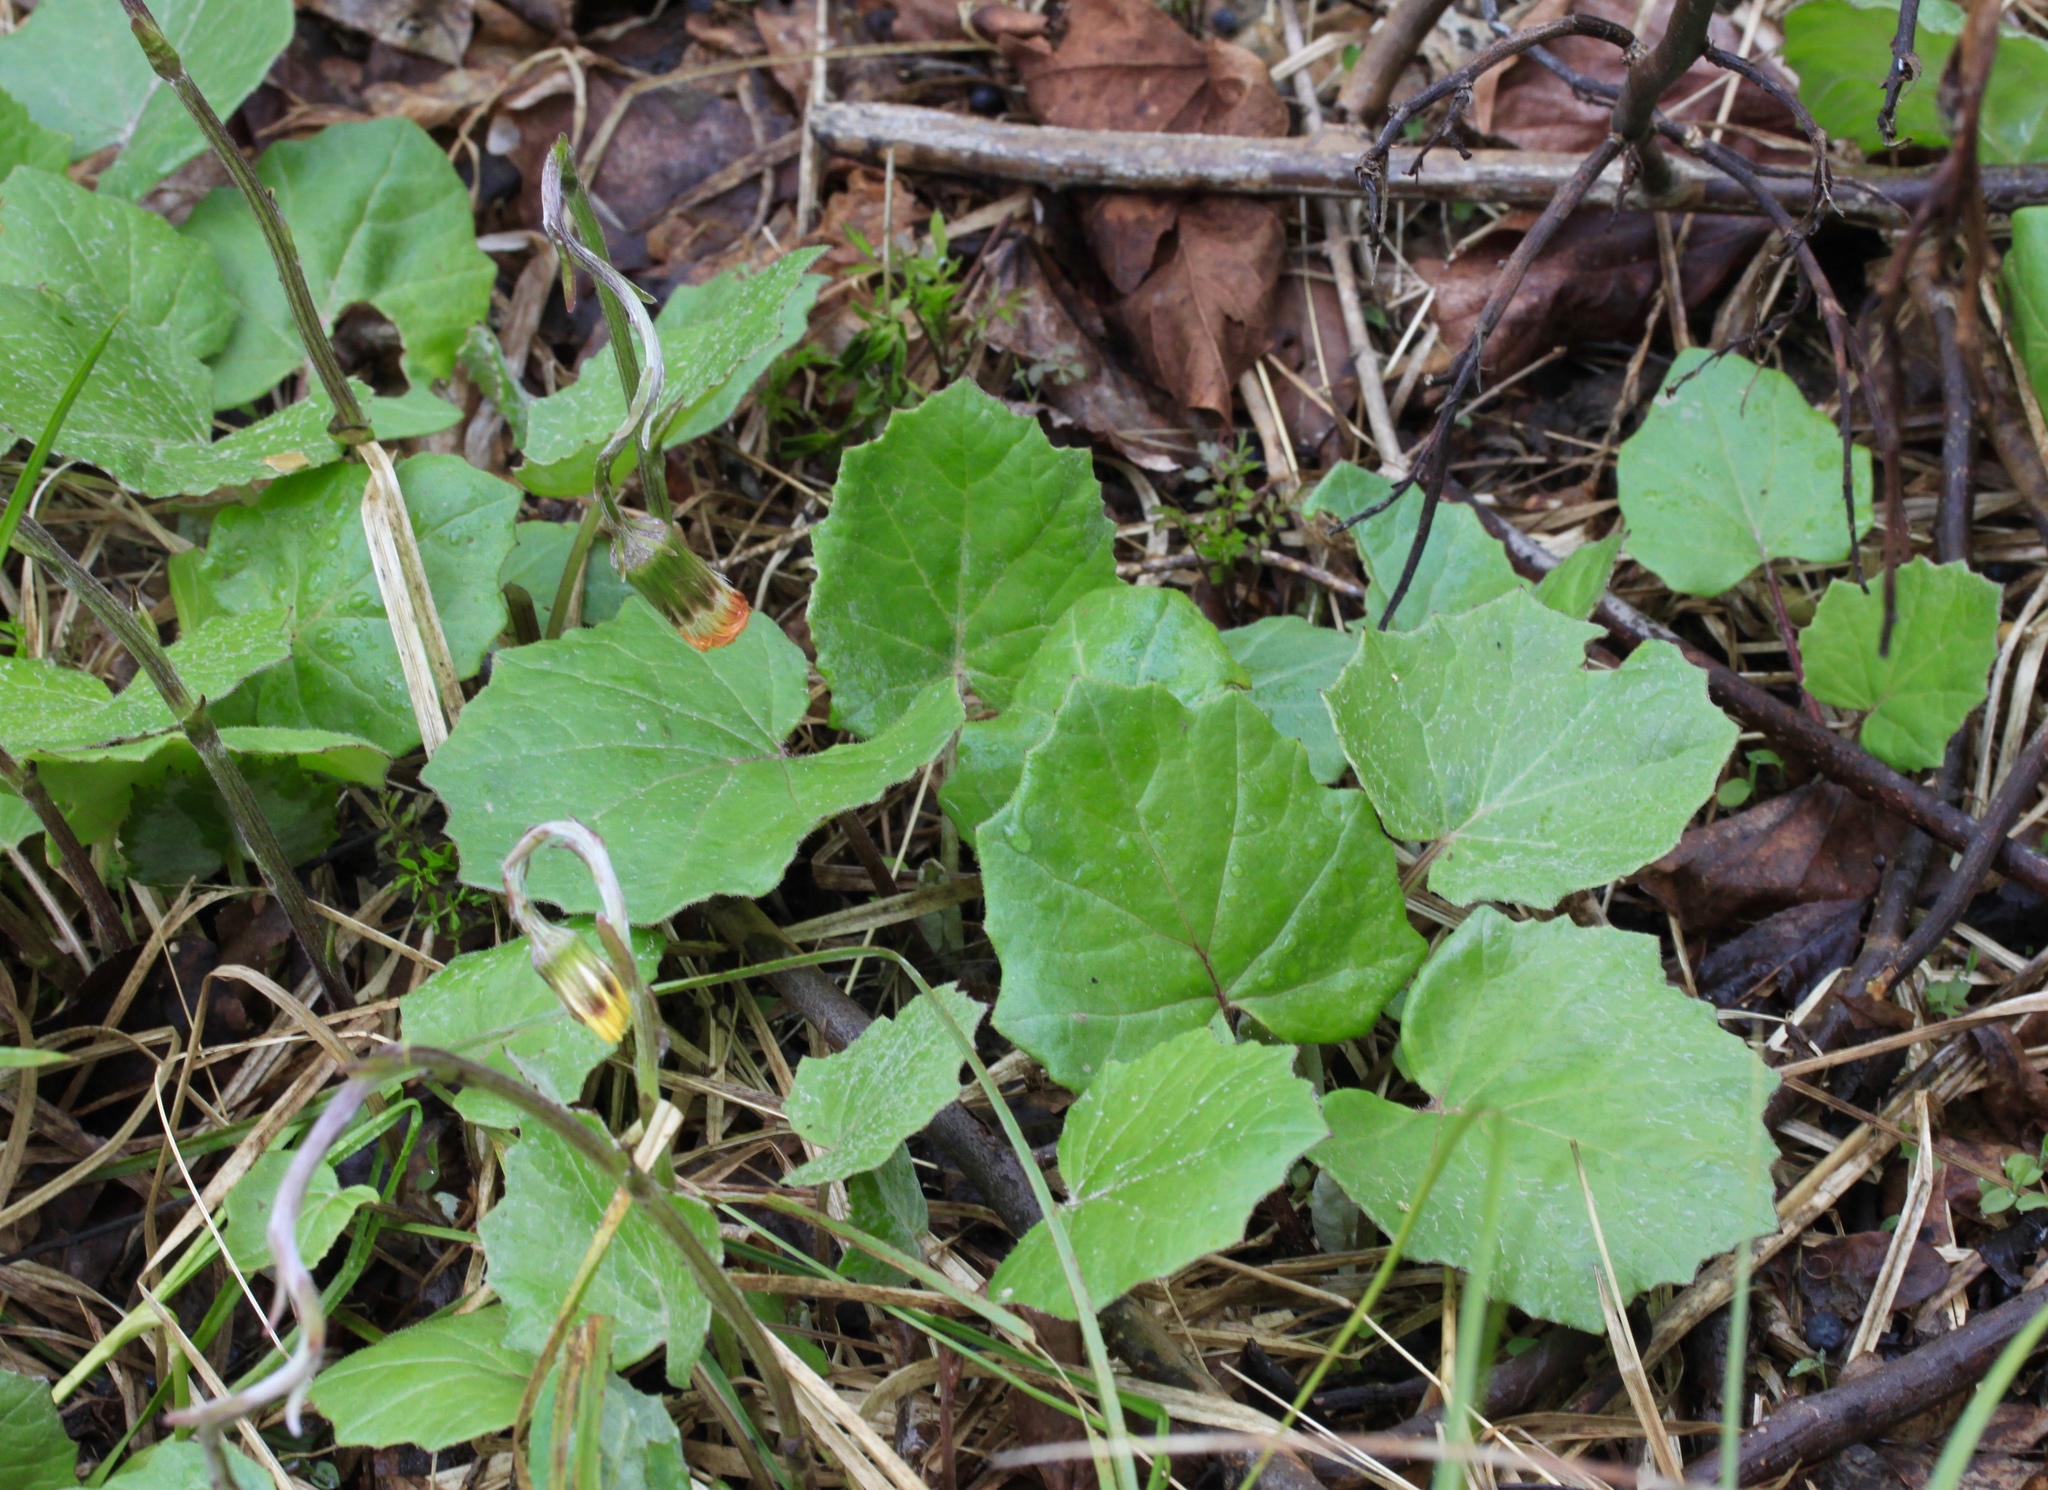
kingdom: Plantae
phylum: Tracheophyta
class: Magnoliopsida
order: Asterales
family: Asteraceae
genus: Tussilago
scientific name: Tussilago farfara
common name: Coltsfoot
